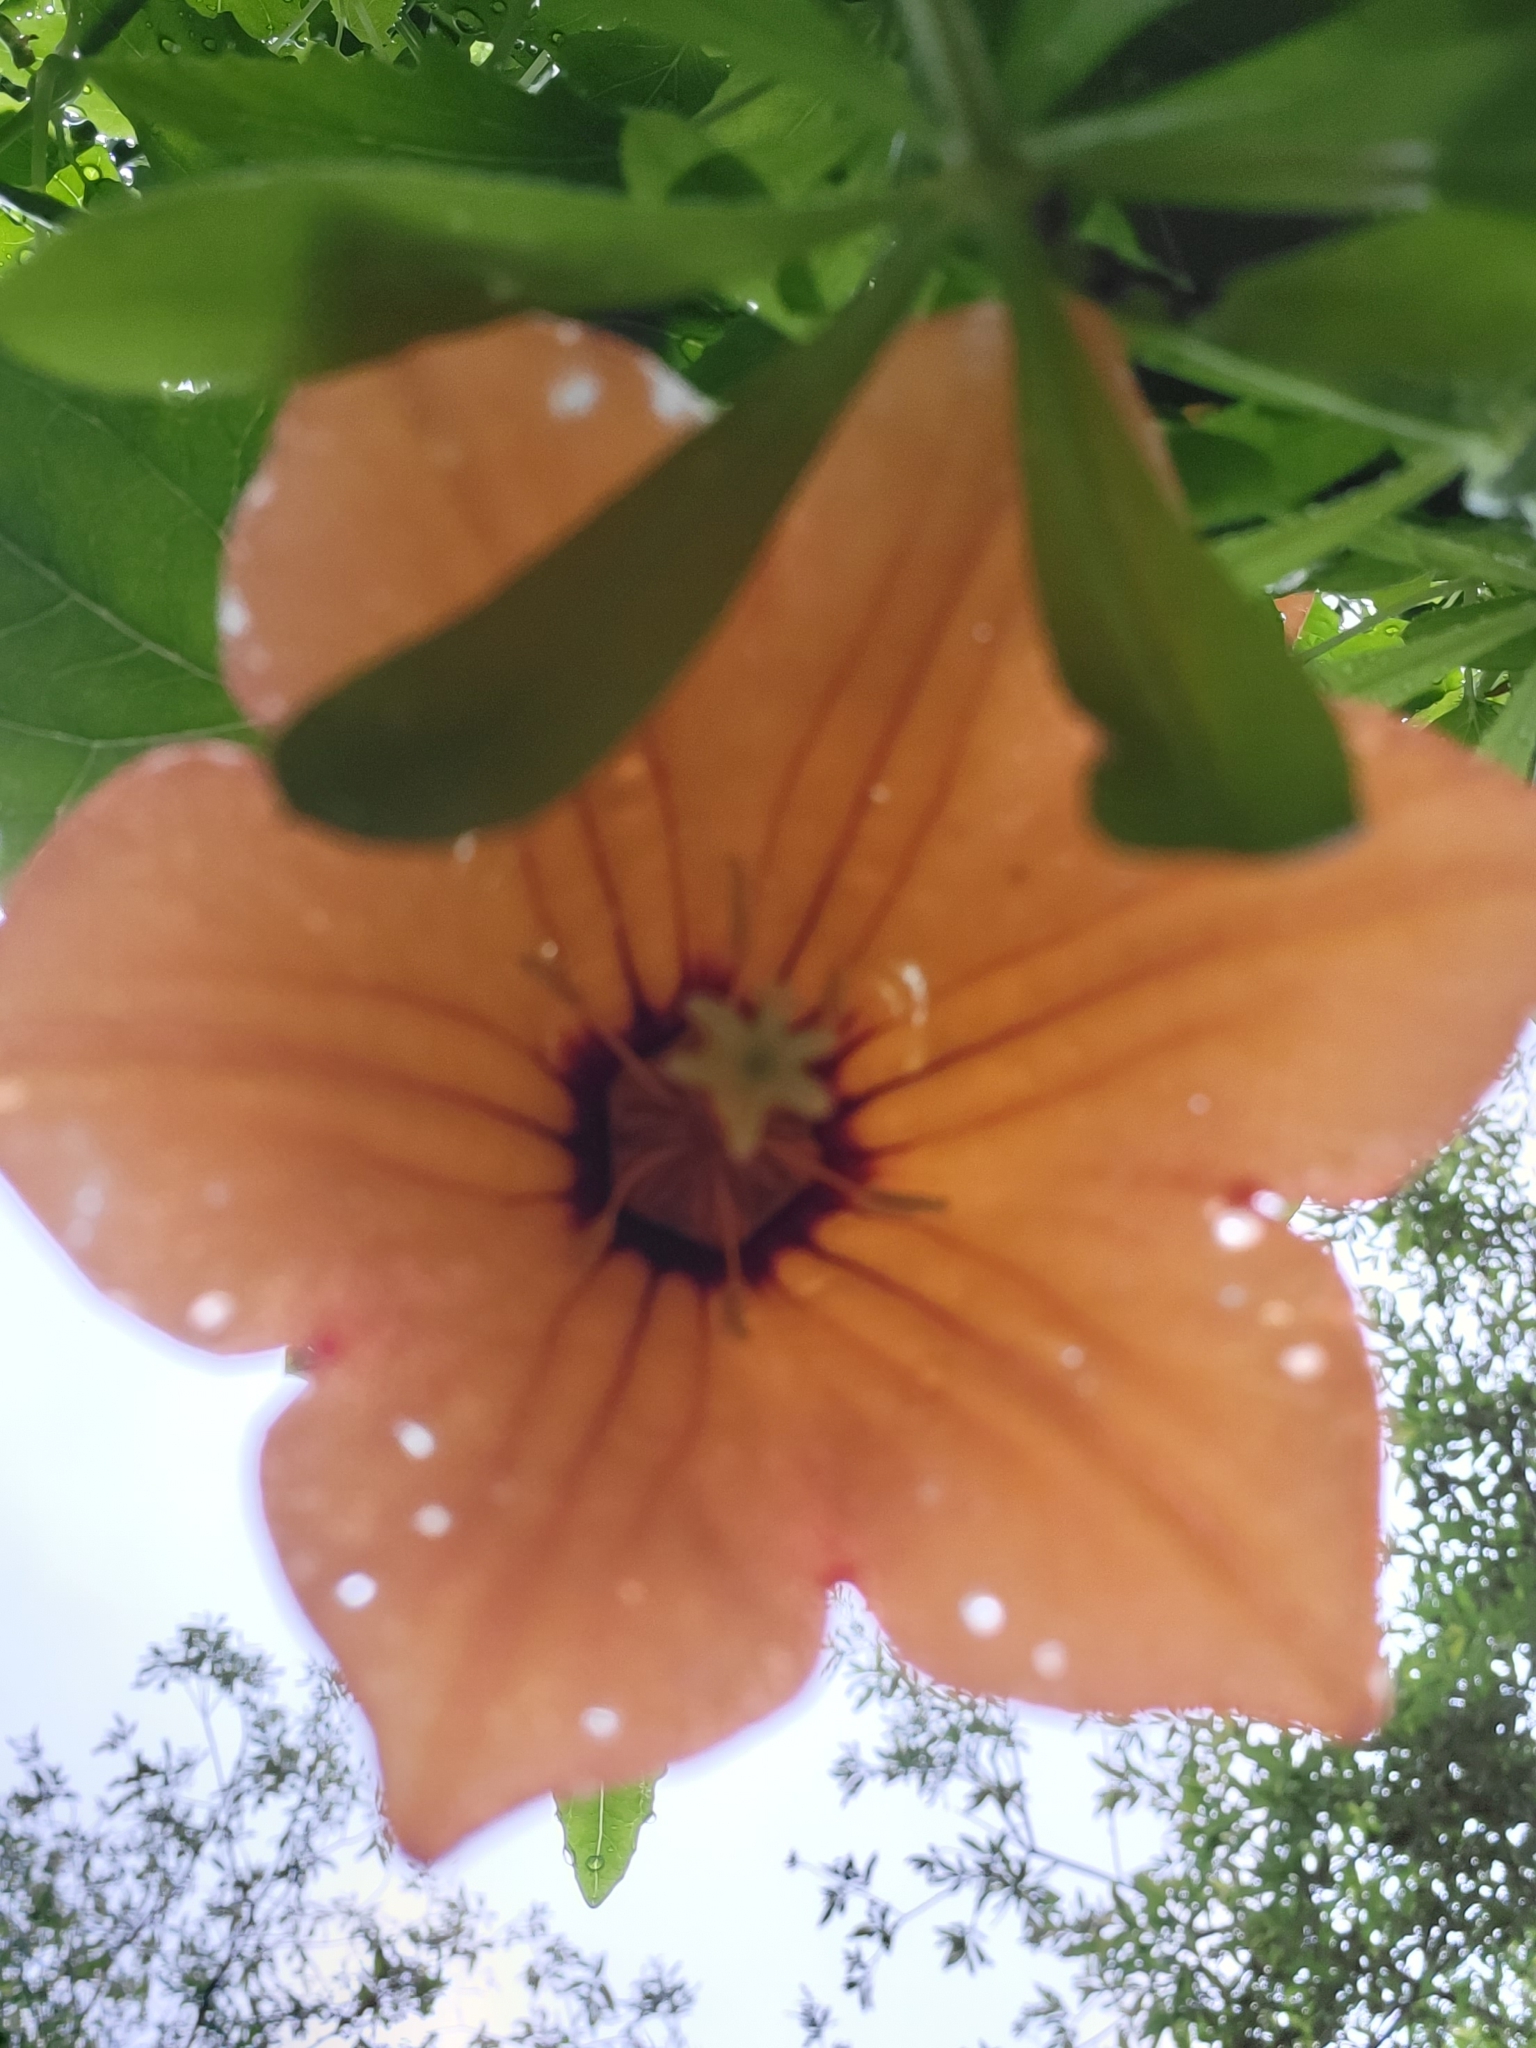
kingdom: Plantae
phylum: Tracheophyta
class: Magnoliopsida
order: Asterales
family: Campanulaceae
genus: Canarina
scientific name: Canarina canariensis
